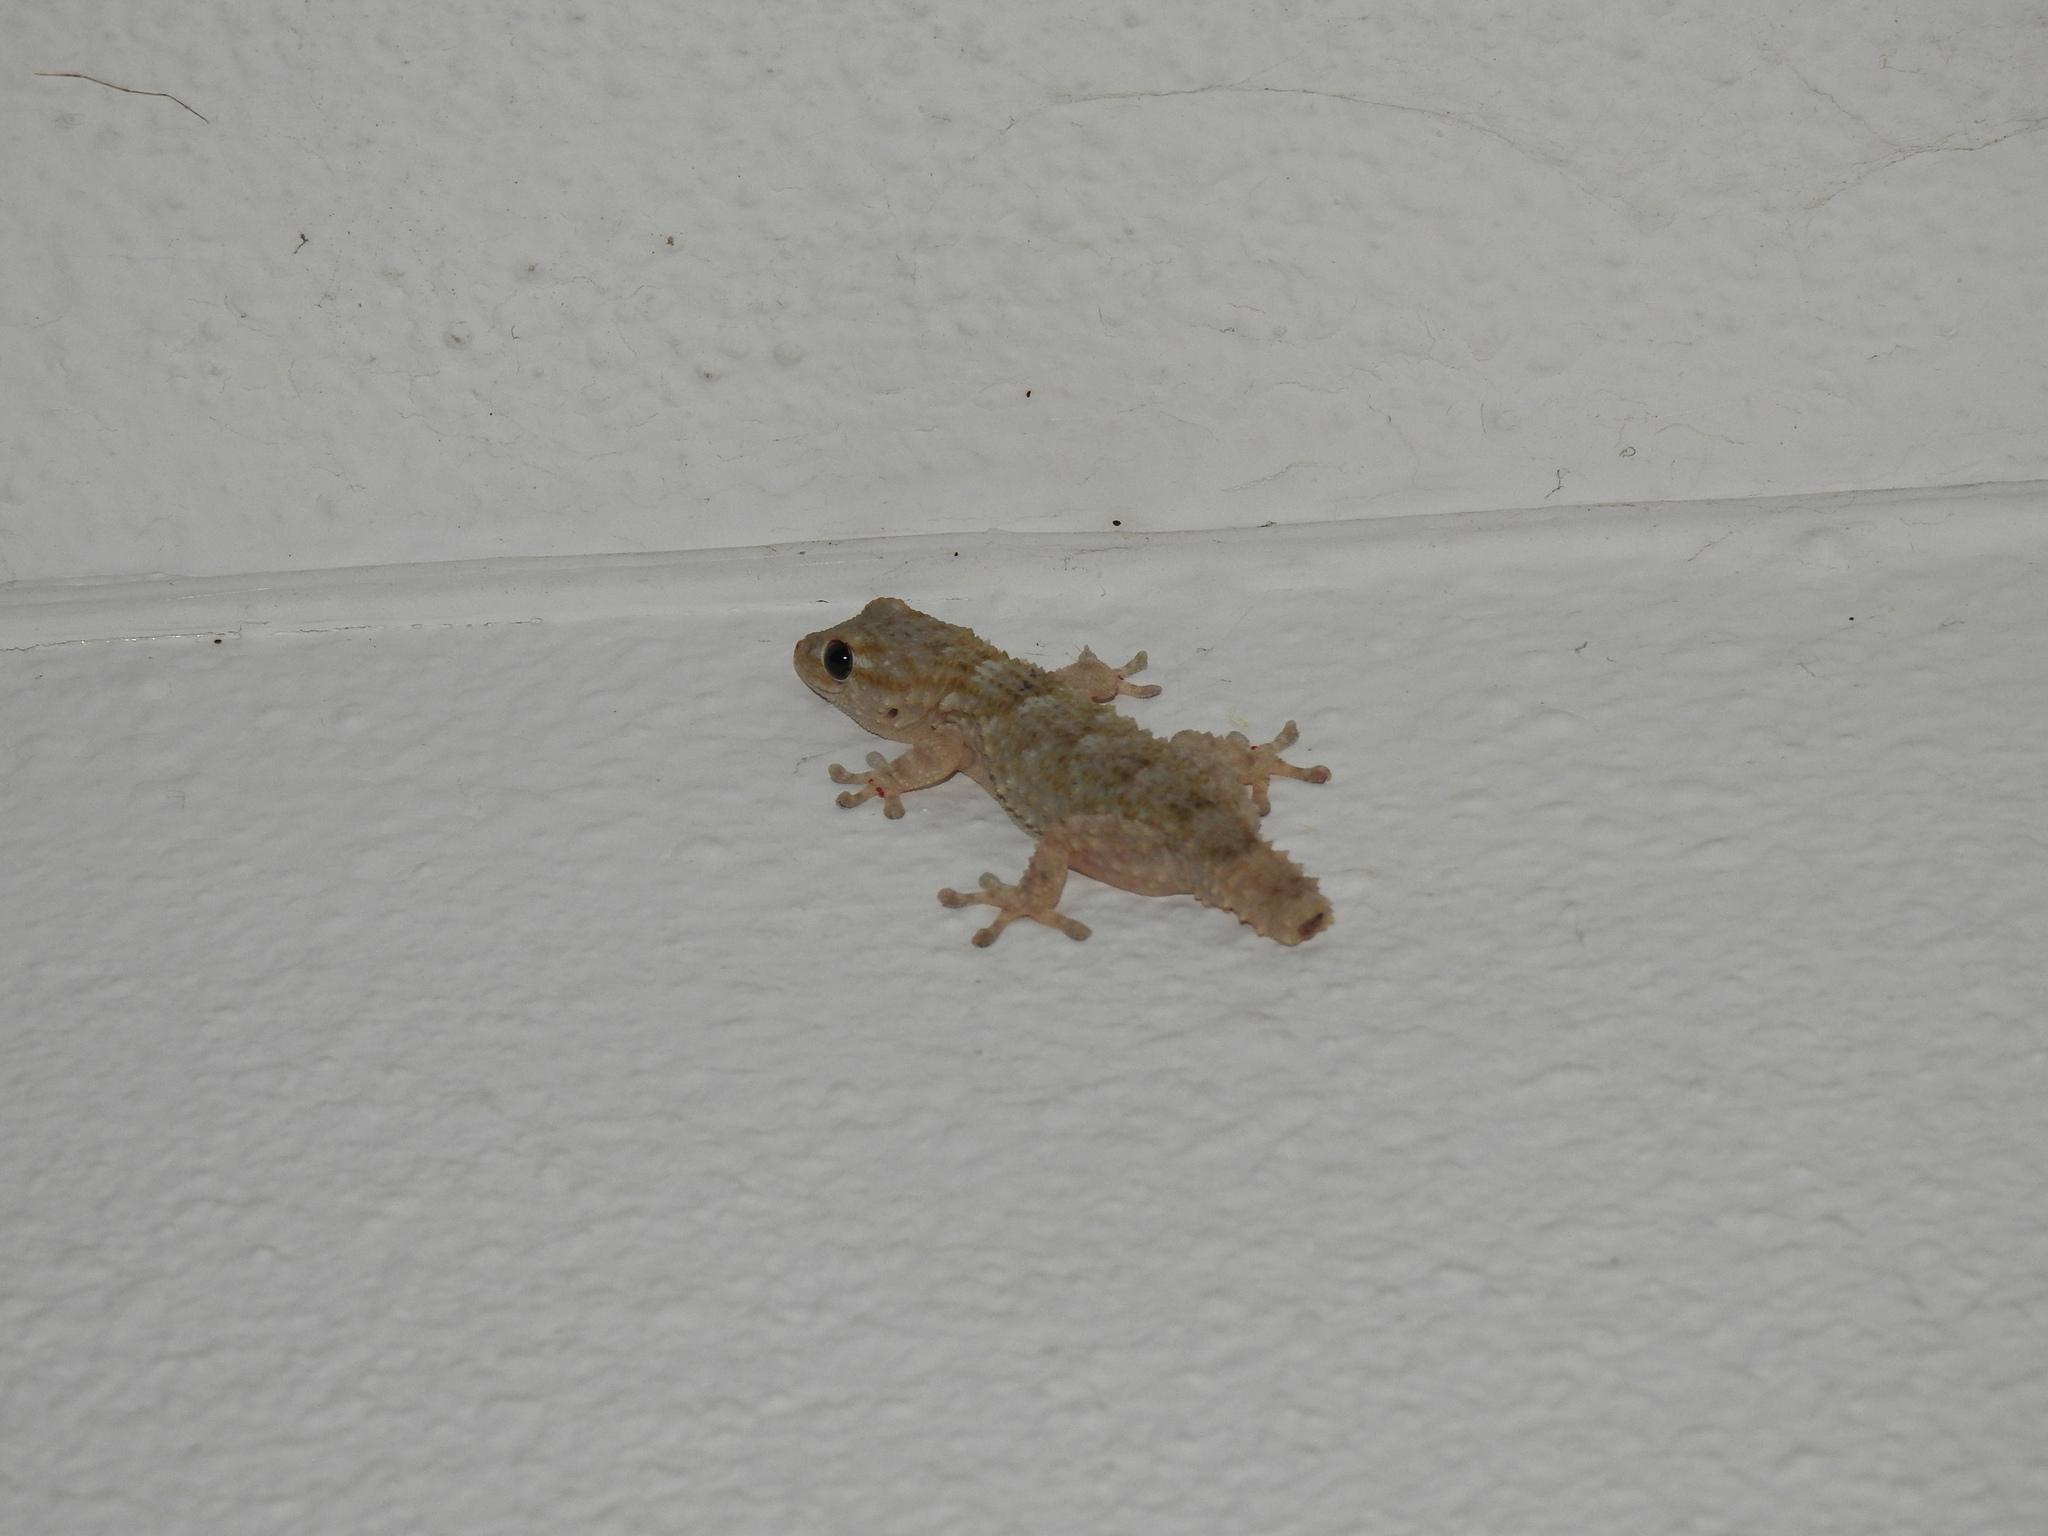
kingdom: Animalia
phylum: Chordata
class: Squamata
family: Phyllodactylidae
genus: Tarentola
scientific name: Tarentola mauritanica
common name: Moorish gecko
